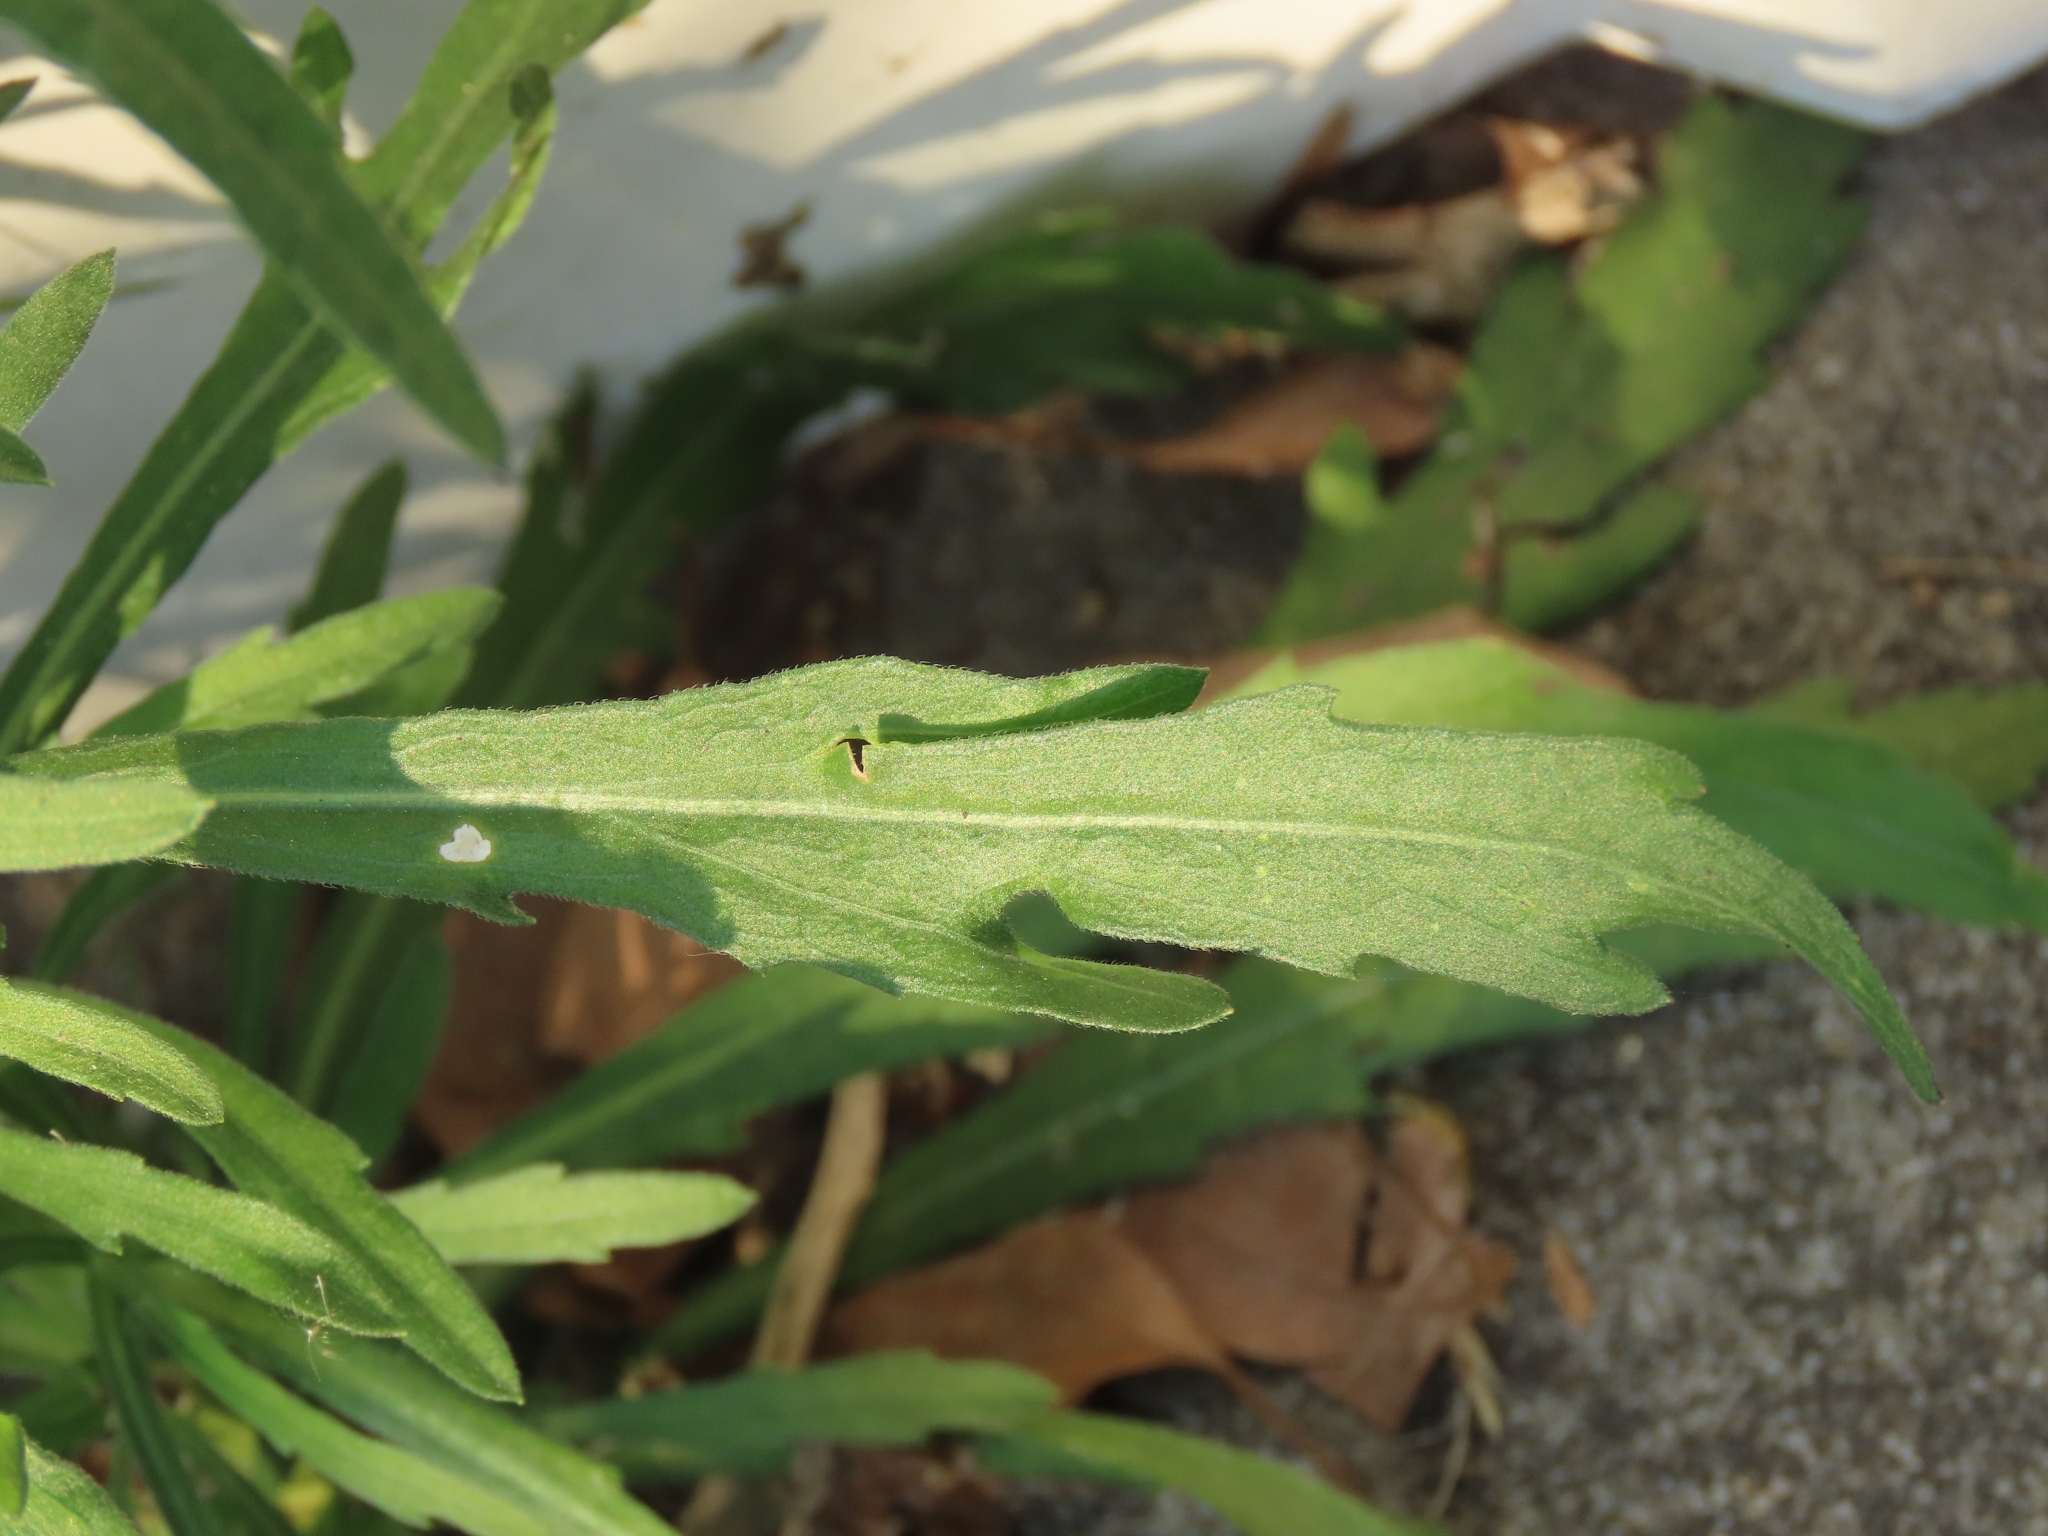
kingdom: Plantae
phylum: Tracheophyta
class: Magnoliopsida
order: Asterales
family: Asteraceae
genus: Erigeron
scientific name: Erigeron bonariensis
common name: Argentine fleabane
